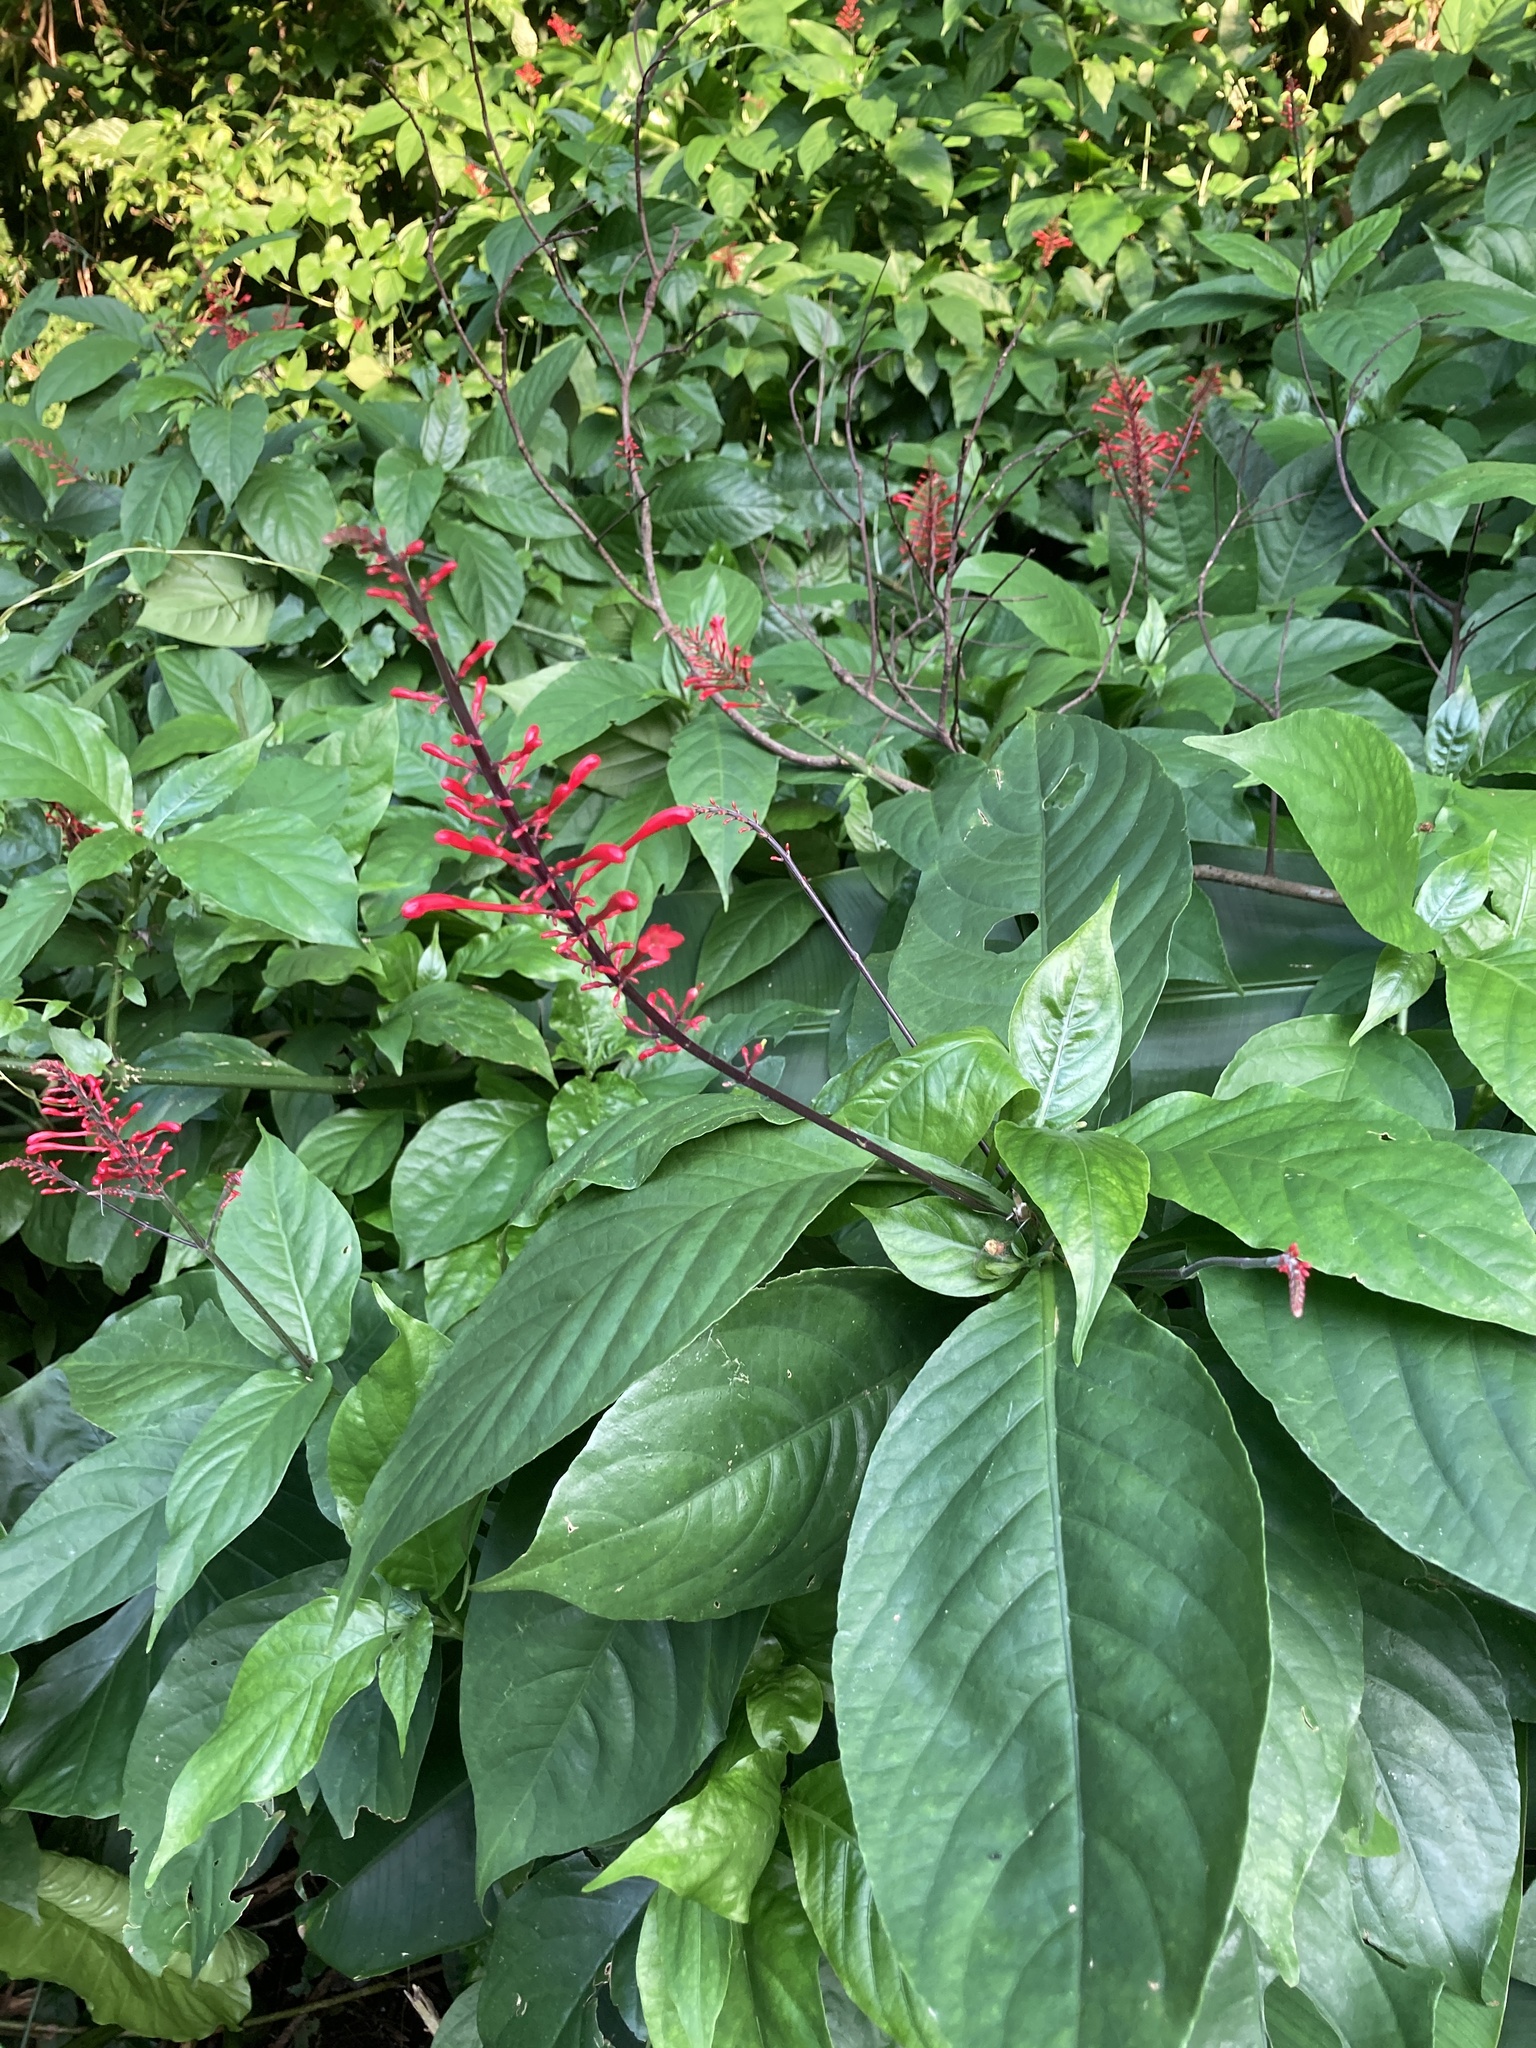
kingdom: Plantae
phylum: Tracheophyta
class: Magnoliopsida
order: Lamiales
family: Acanthaceae
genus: Odontonema
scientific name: Odontonema tubaeforme
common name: Firespike
